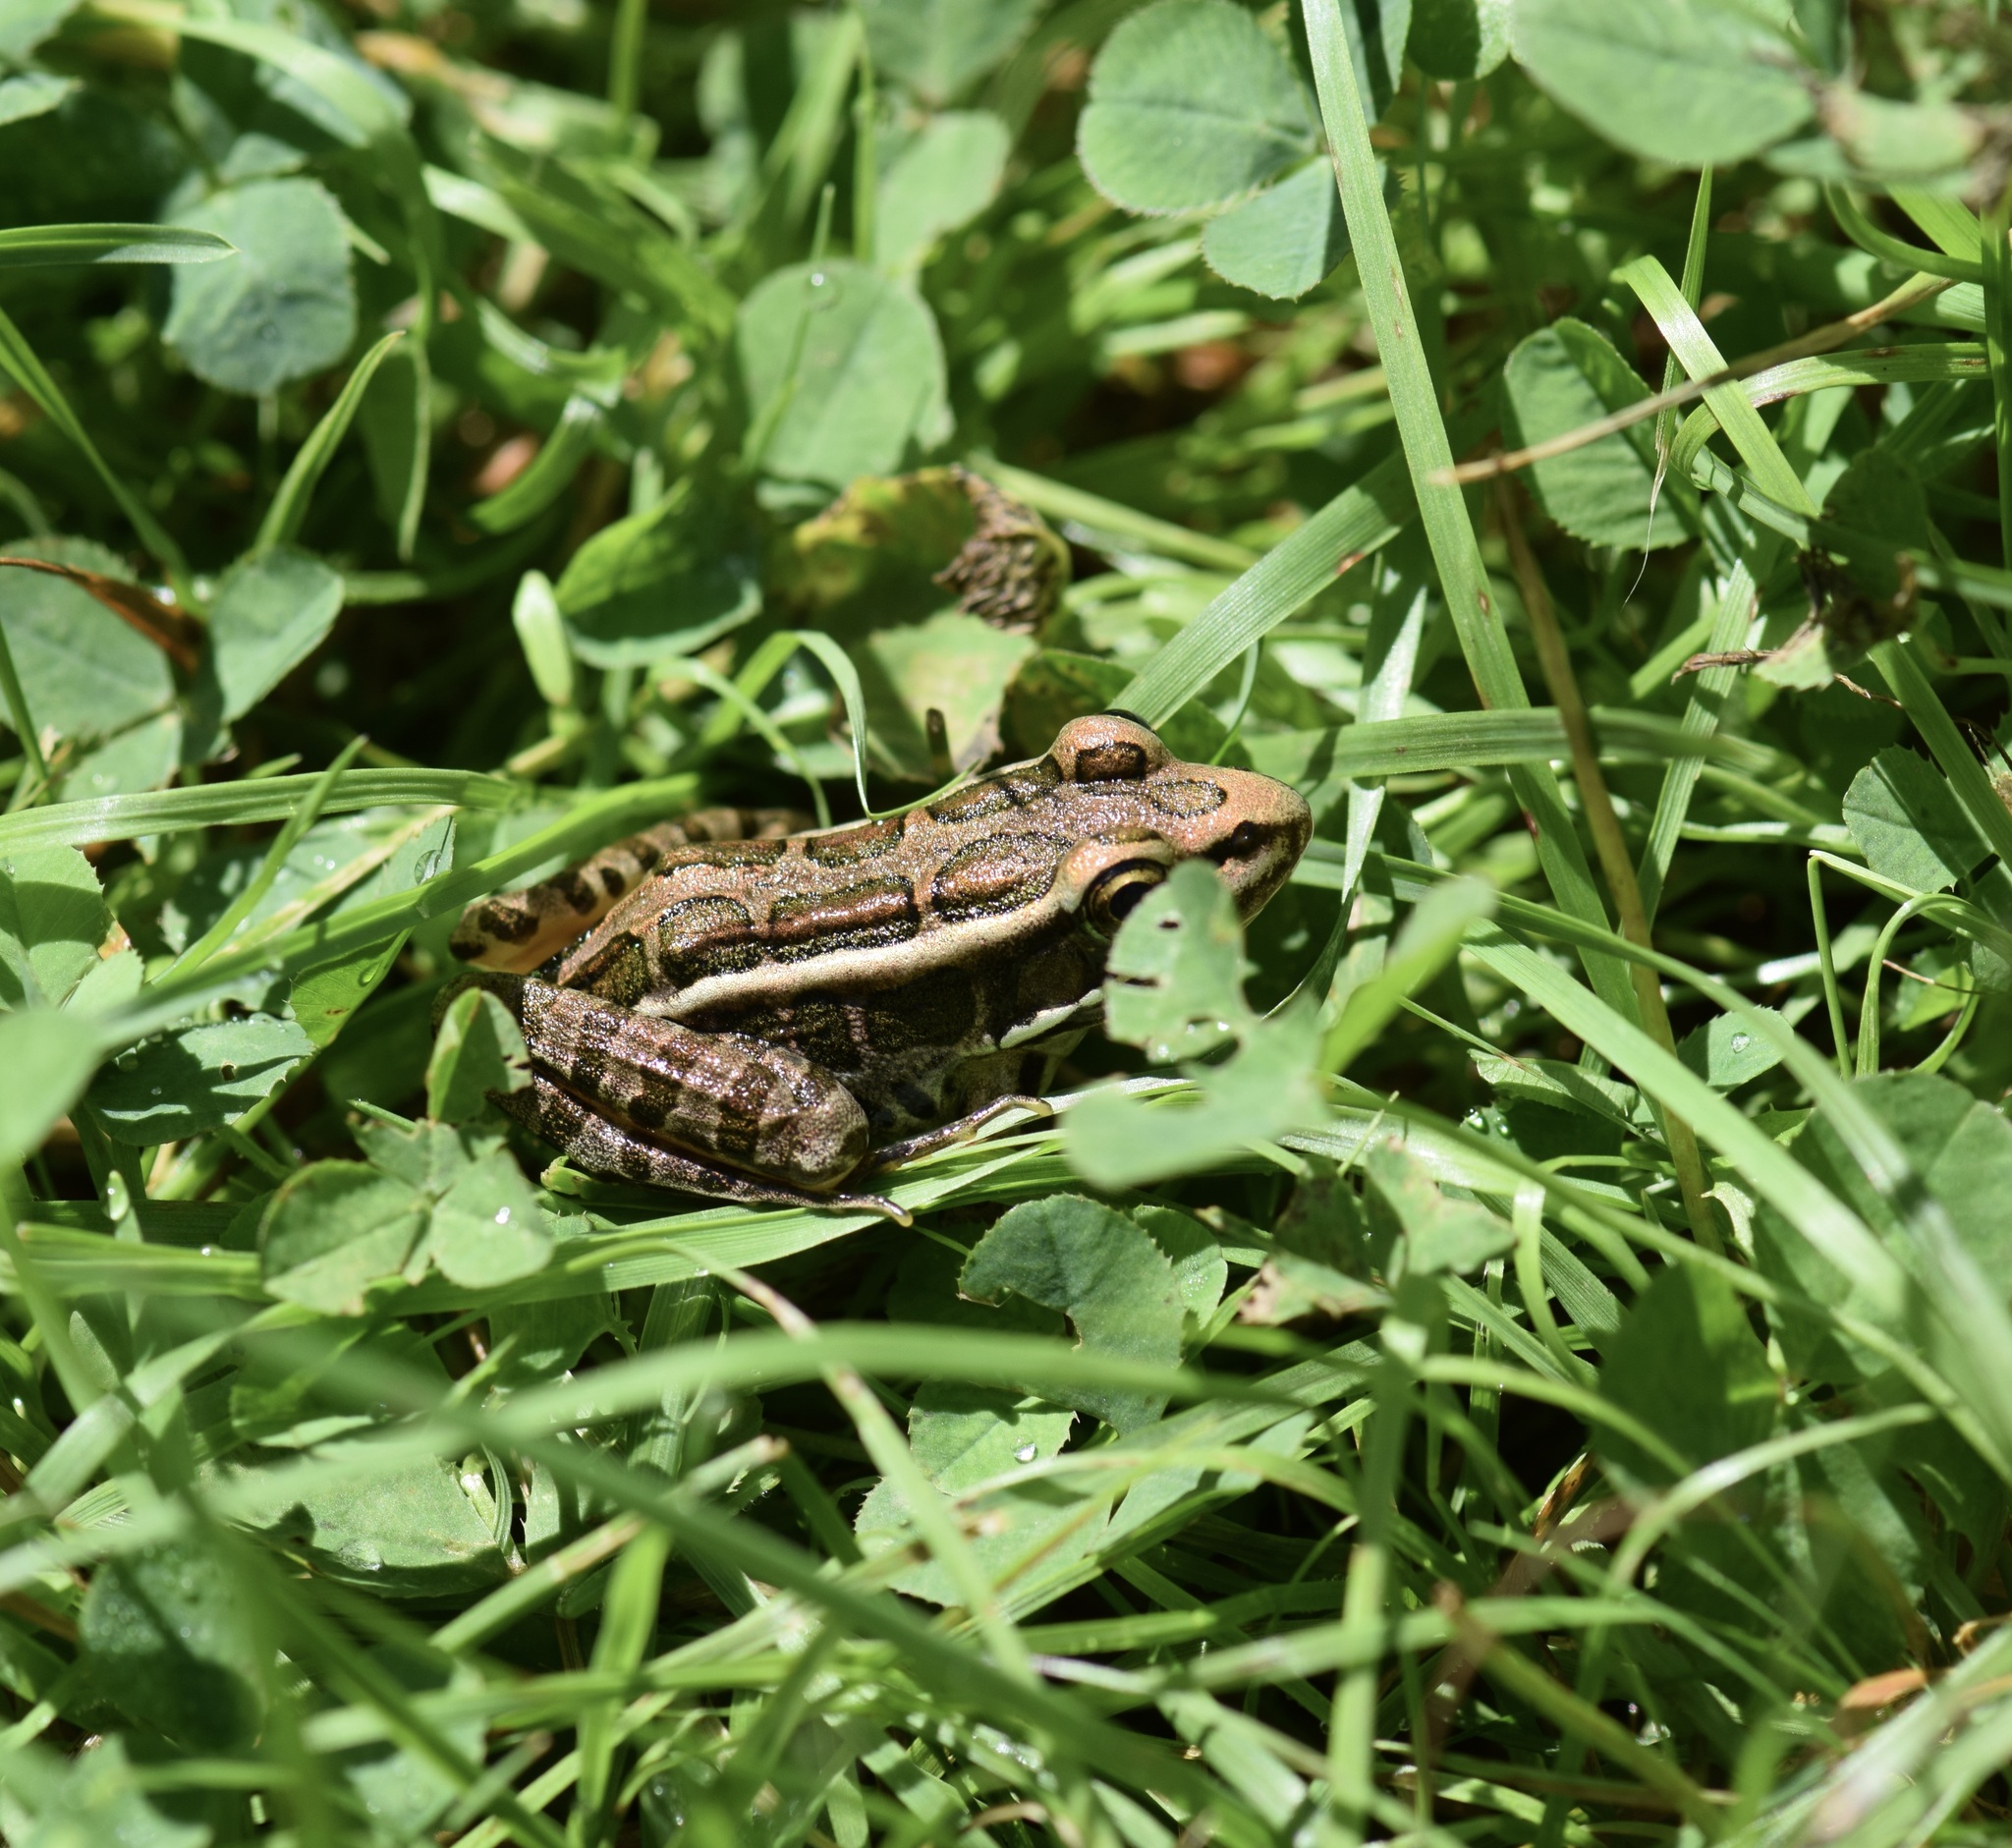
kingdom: Animalia
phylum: Chordata
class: Amphibia
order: Anura
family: Ranidae
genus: Lithobates
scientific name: Lithobates palustris
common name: Pickerel frog
